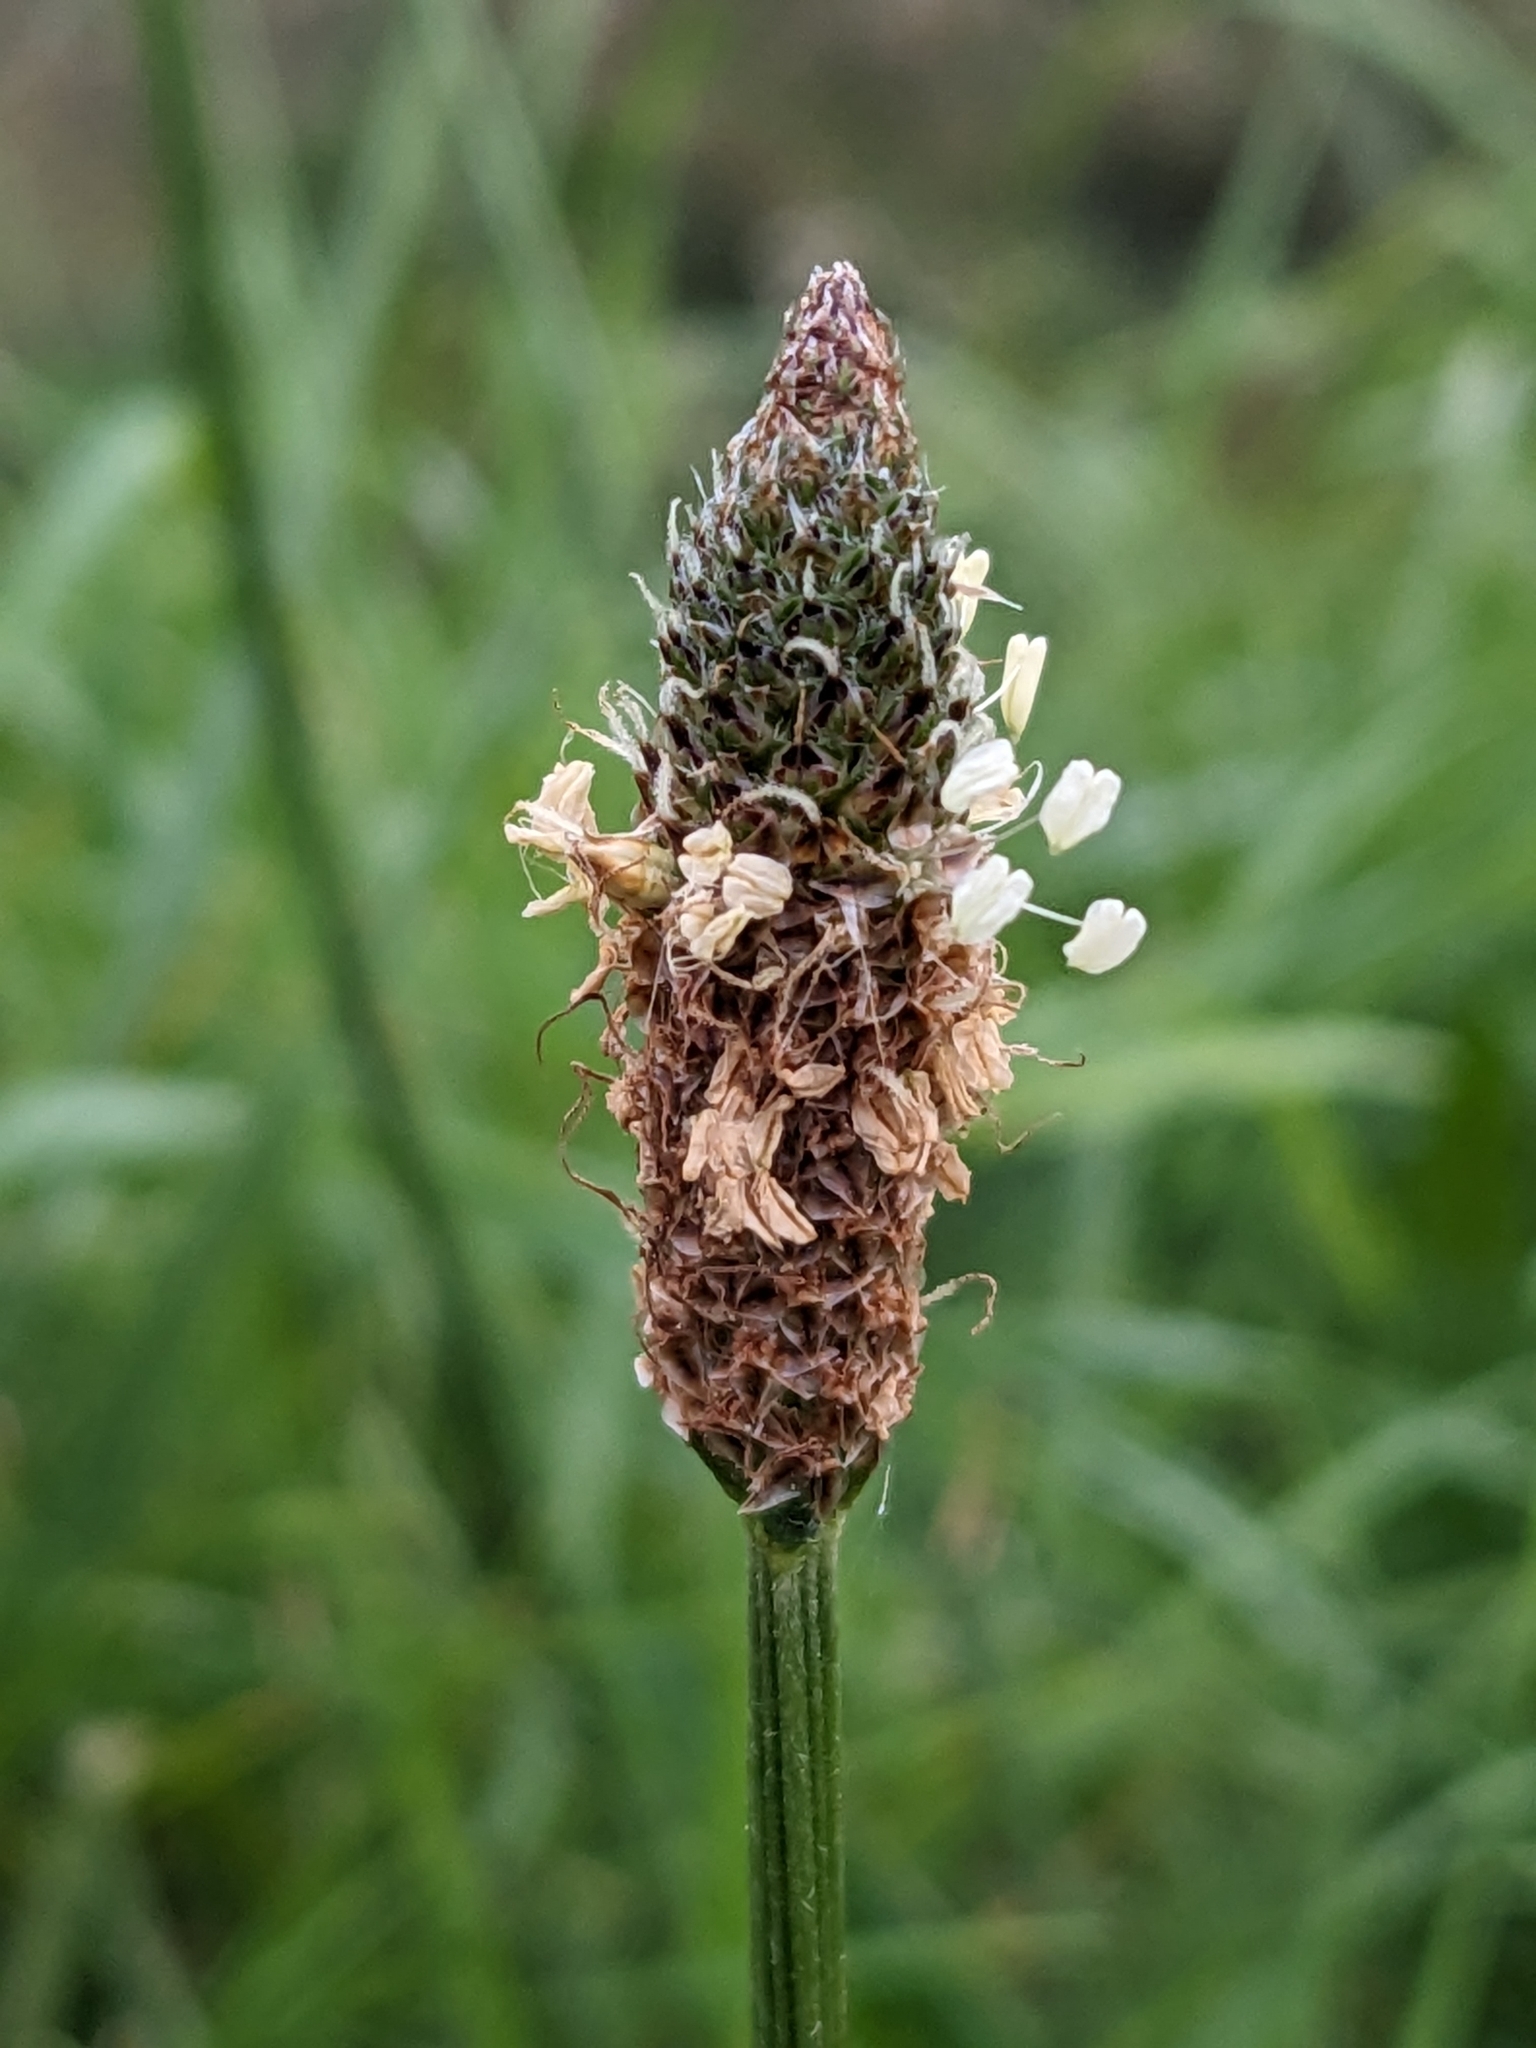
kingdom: Plantae
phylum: Tracheophyta
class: Magnoliopsida
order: Lamiales
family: Plantaginaceae
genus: Plantago
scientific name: Plantago lanceolata
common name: Ribwort plantain
